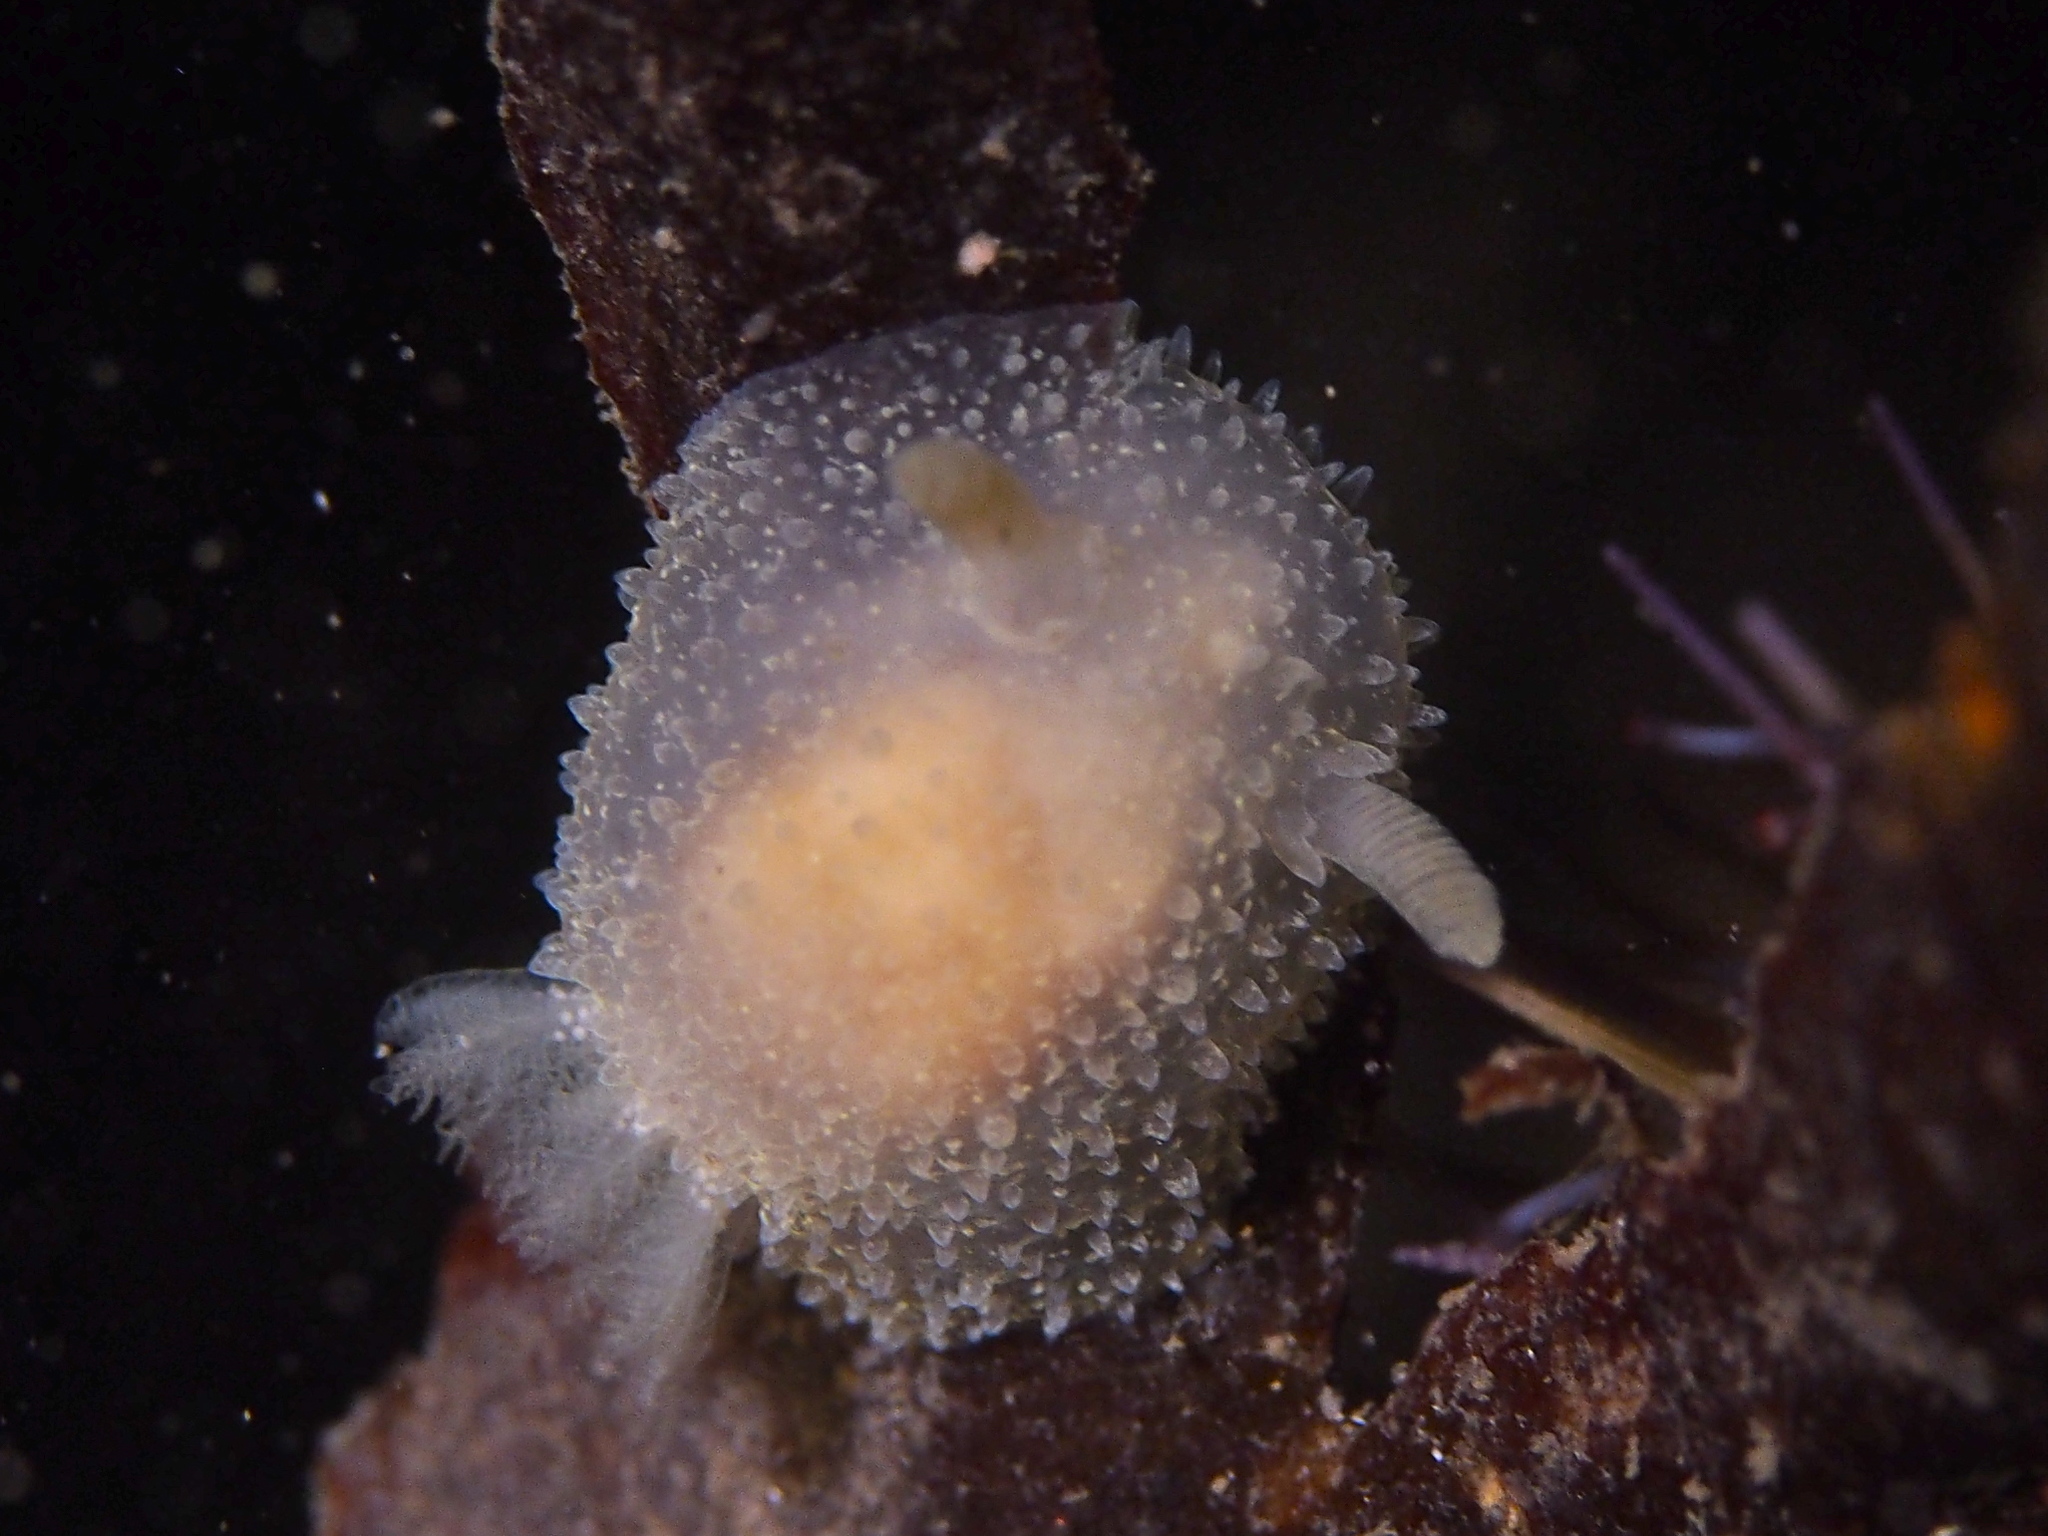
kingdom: Animalia
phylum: Mollusca
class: Gastropoda
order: Nudibranchia
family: Onchidorididae
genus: Acanthodoris
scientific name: Acanthodoris pilosa
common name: Hairy spiny doris
